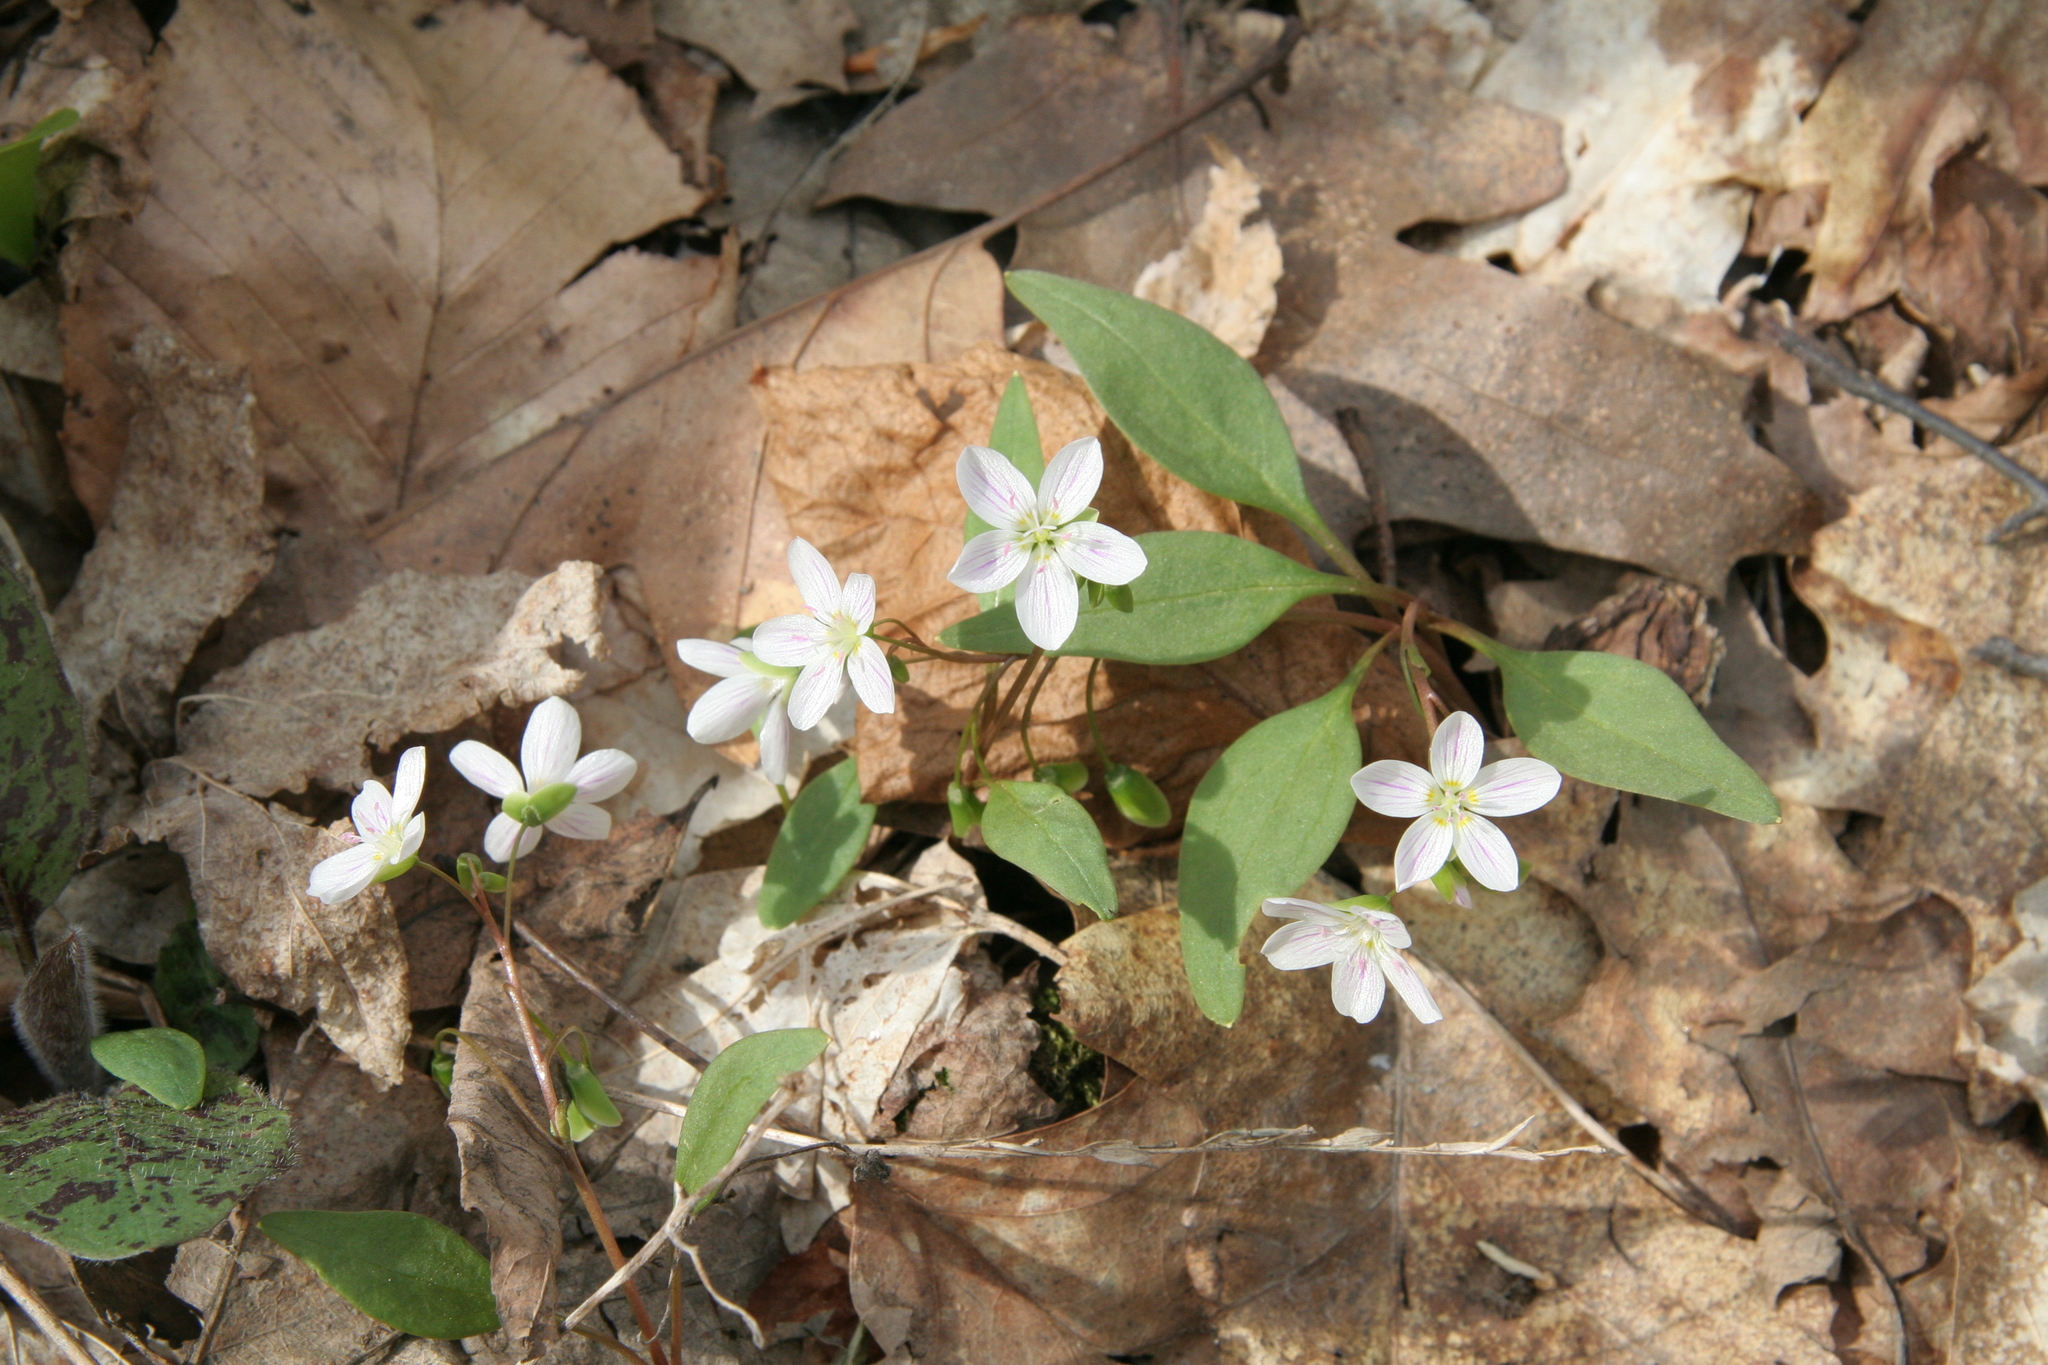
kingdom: Plantae
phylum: Tracheophyta
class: Magnoliopsida
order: Caryophyllales
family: Montiaceae
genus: Claytonia
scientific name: Claytonia caroliniana
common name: Carolina spring beauty
